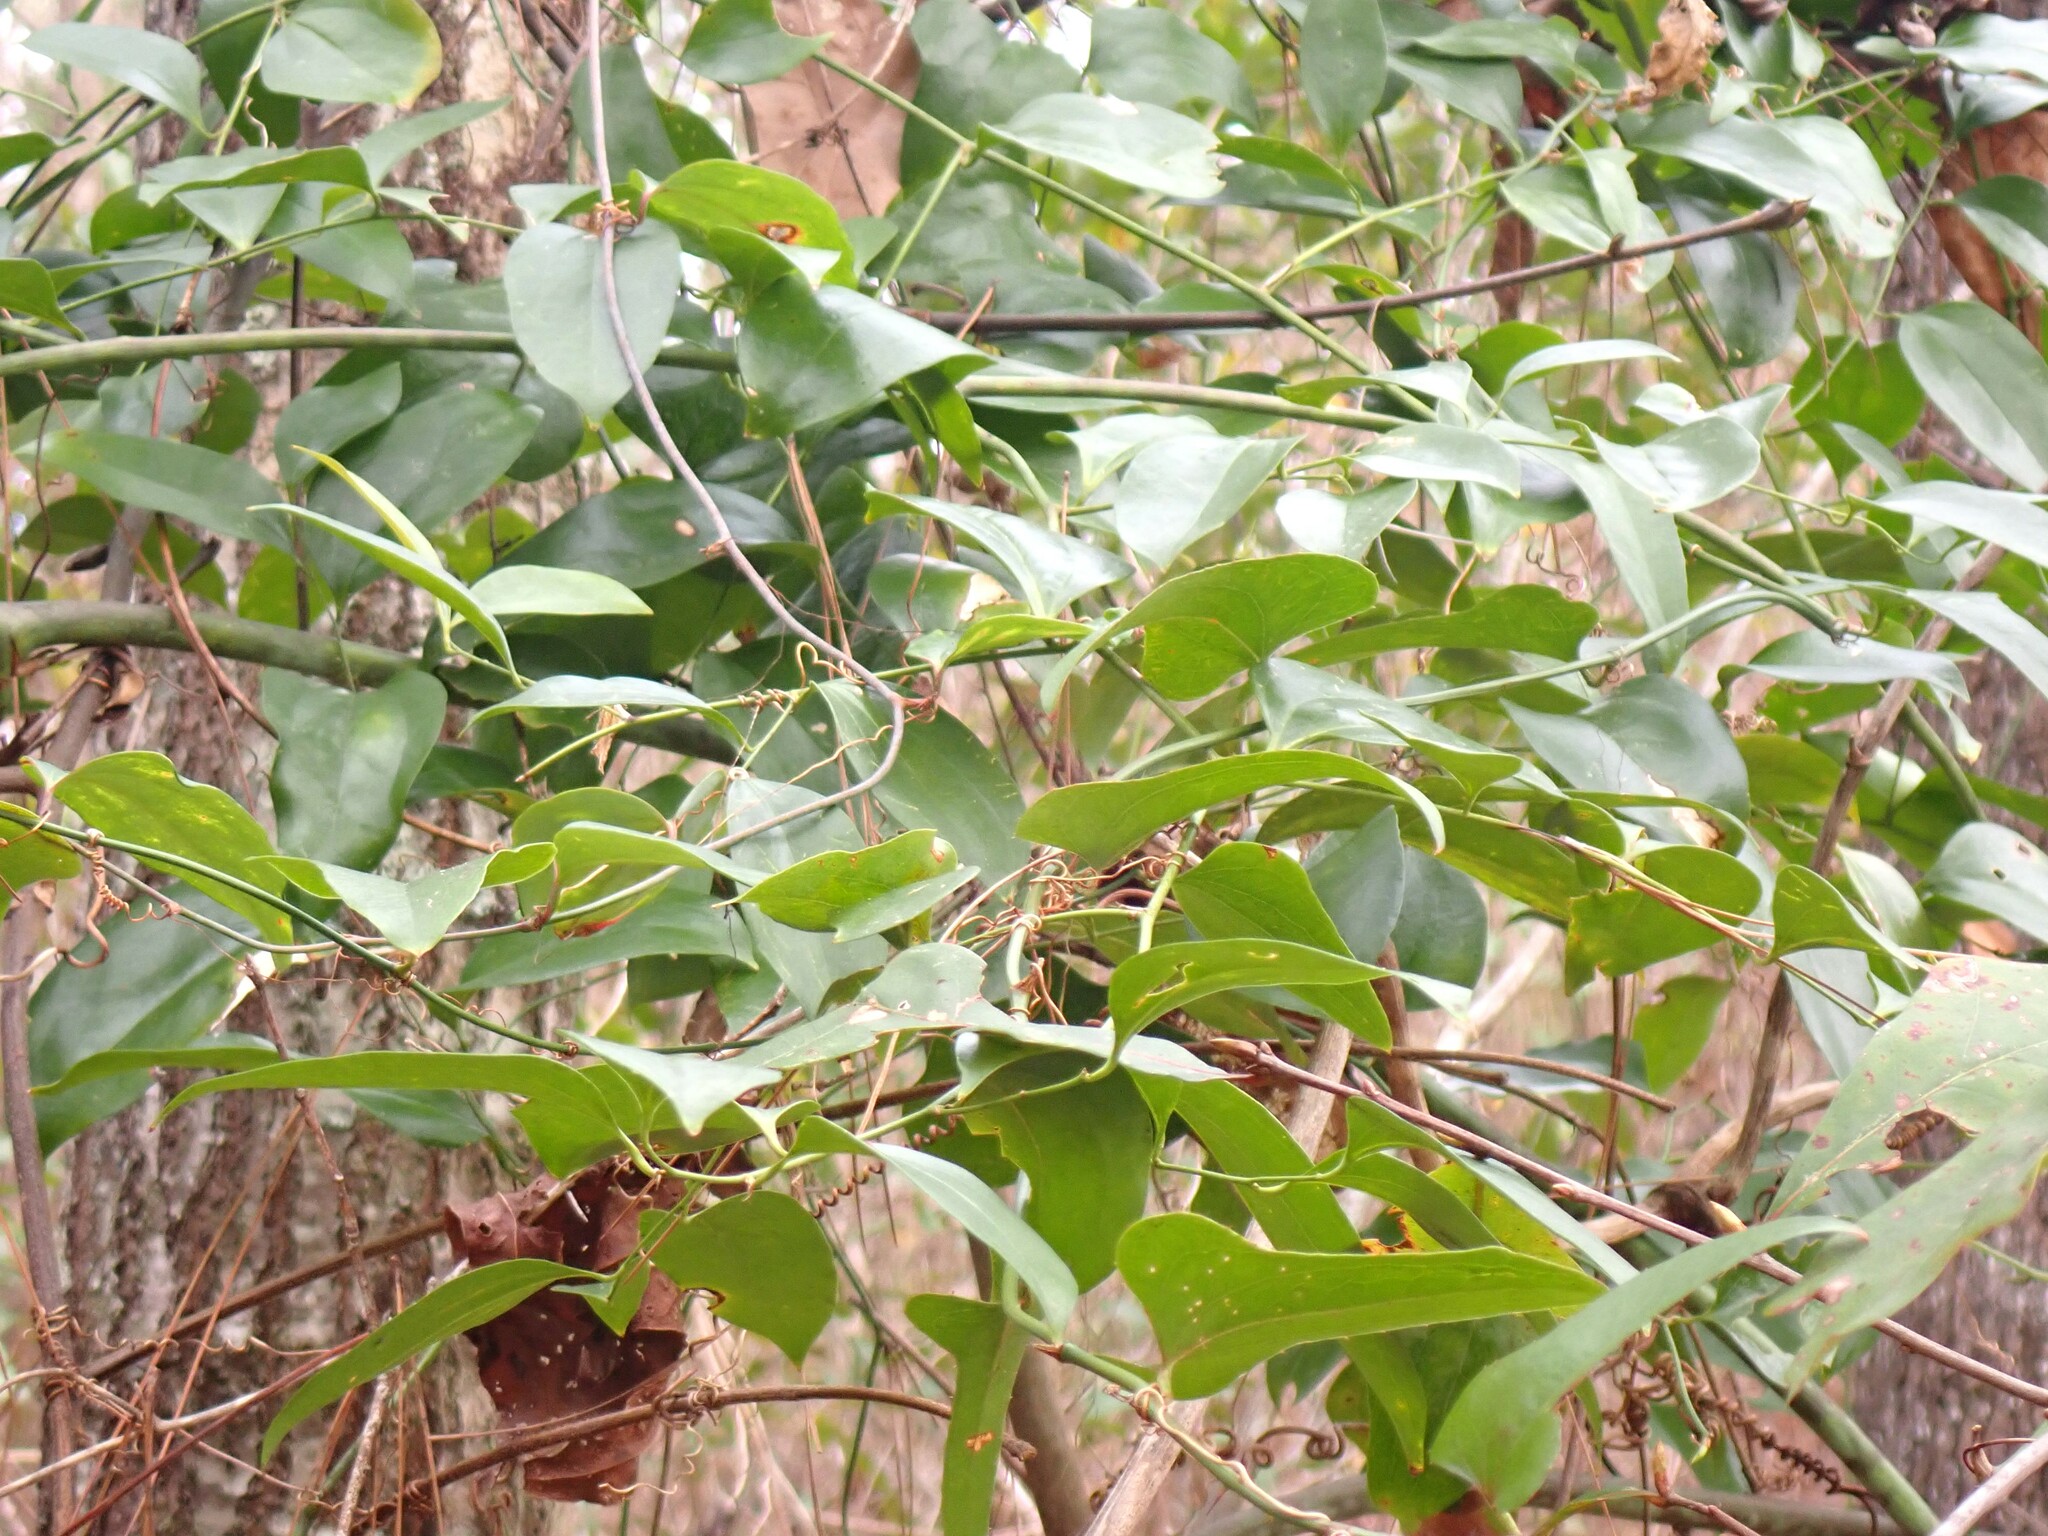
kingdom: Plantae
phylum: Tracheophyta
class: Liliopsida
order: Liliales
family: Smilacaceae
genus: Smilax
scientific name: Smilax bona-nox
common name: Catbrier
